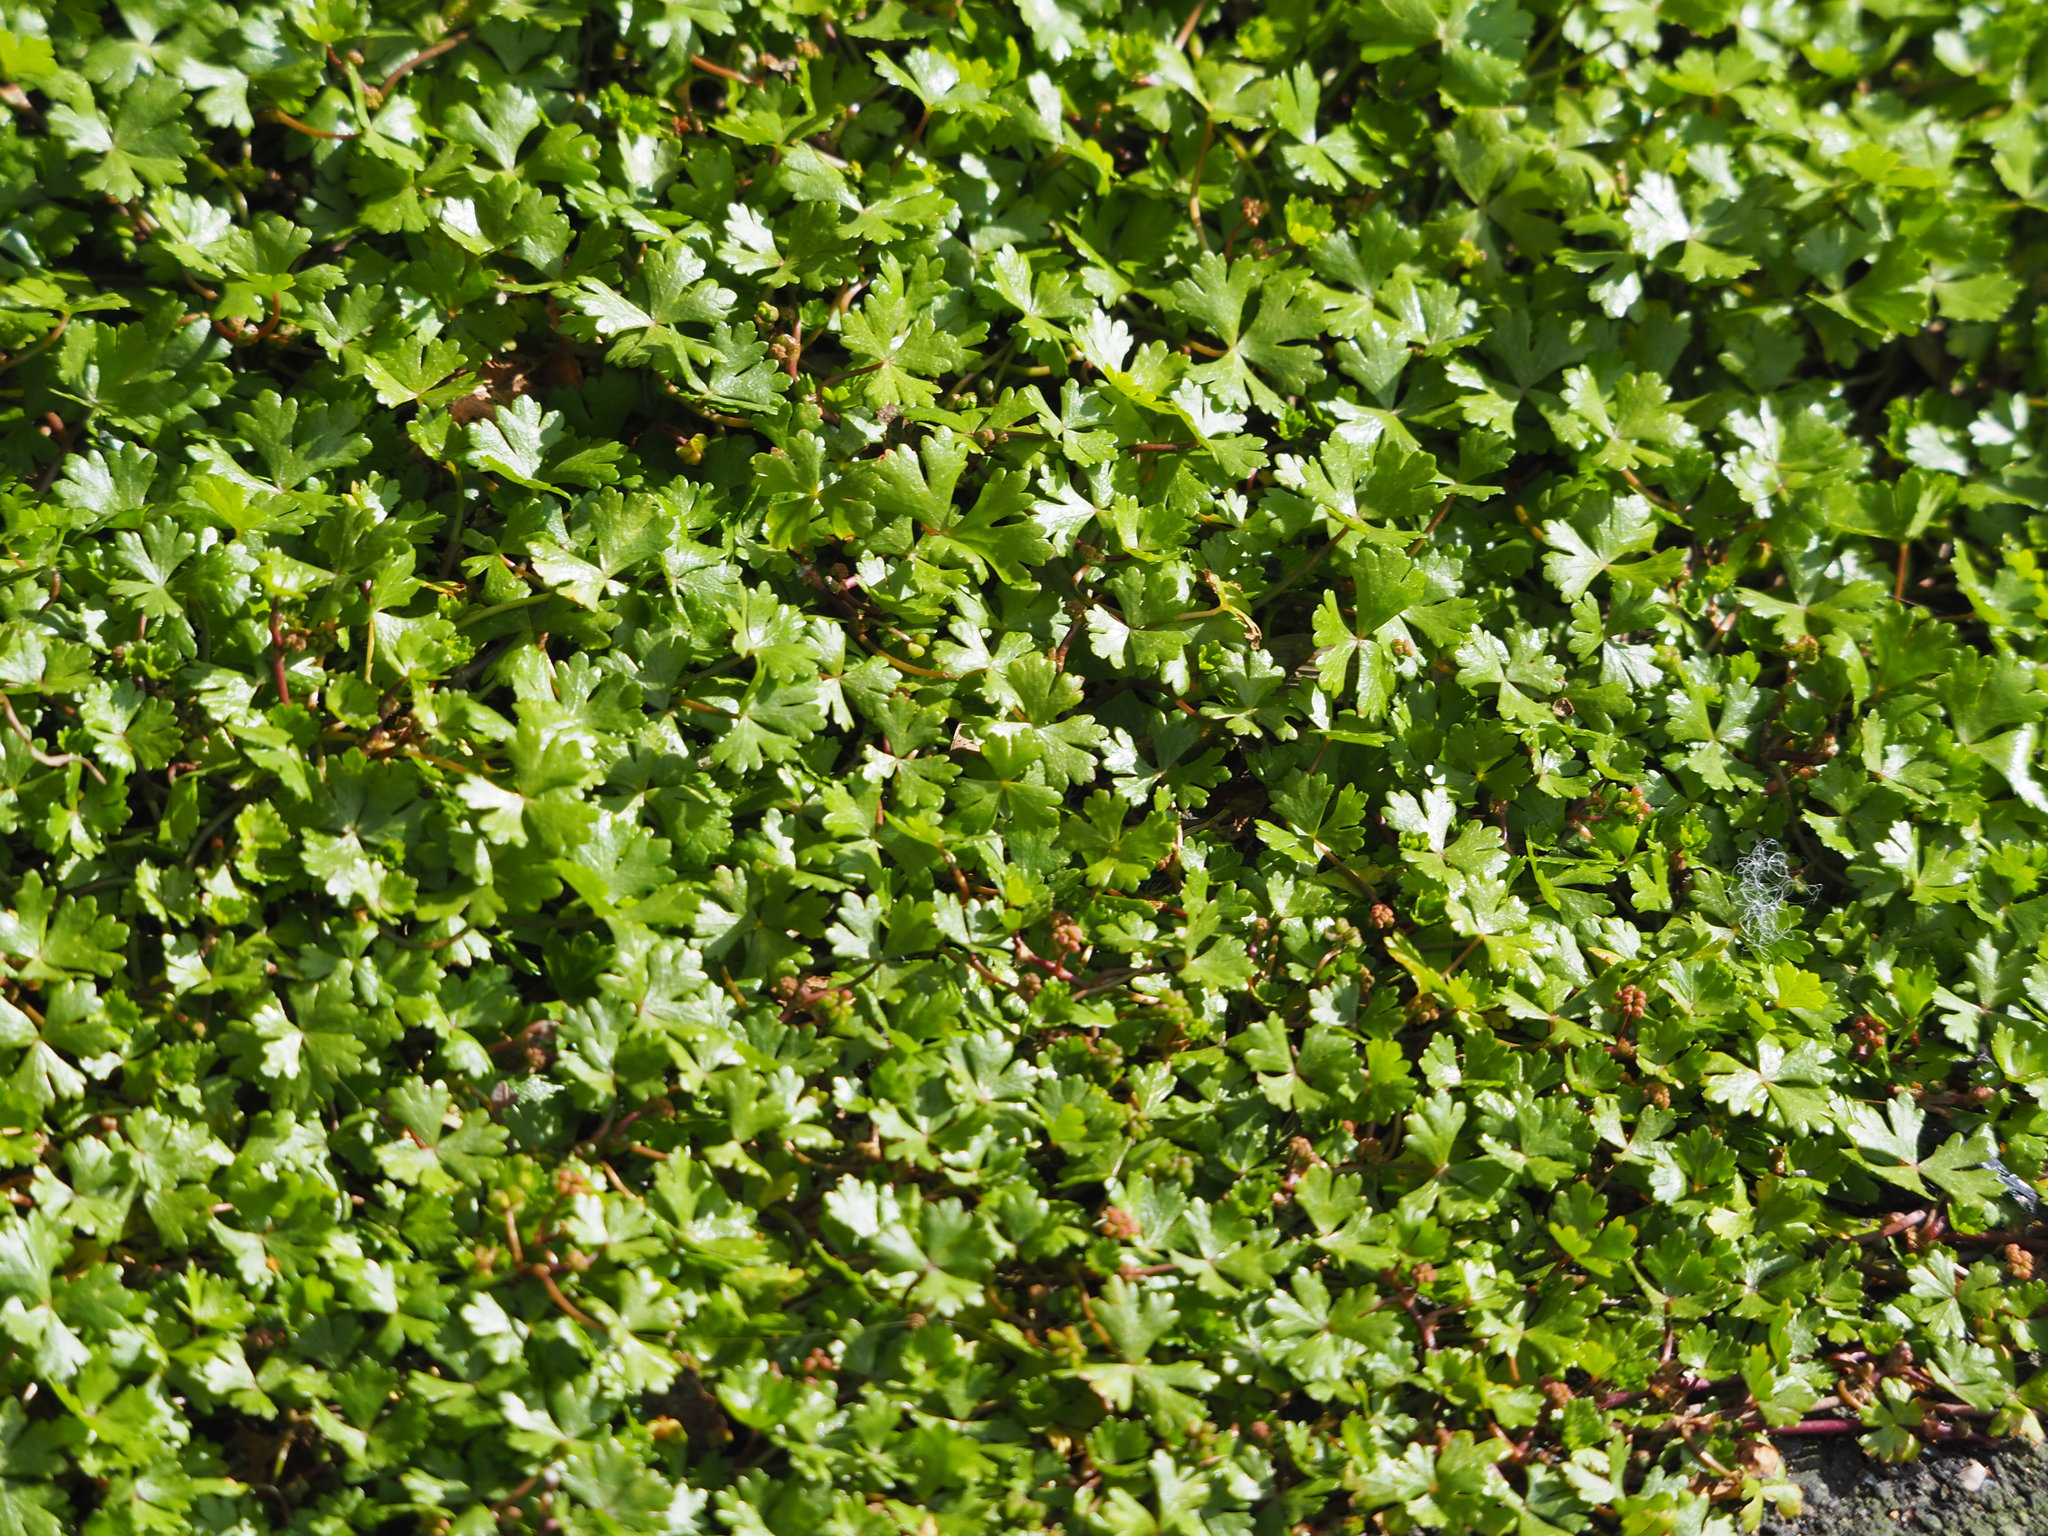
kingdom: Plantae
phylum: Tracheophyta
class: Magnoliopsida
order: Apiales
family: Araliaceae
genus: Hydrocotyle
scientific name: Hydrocotyle batrachium
